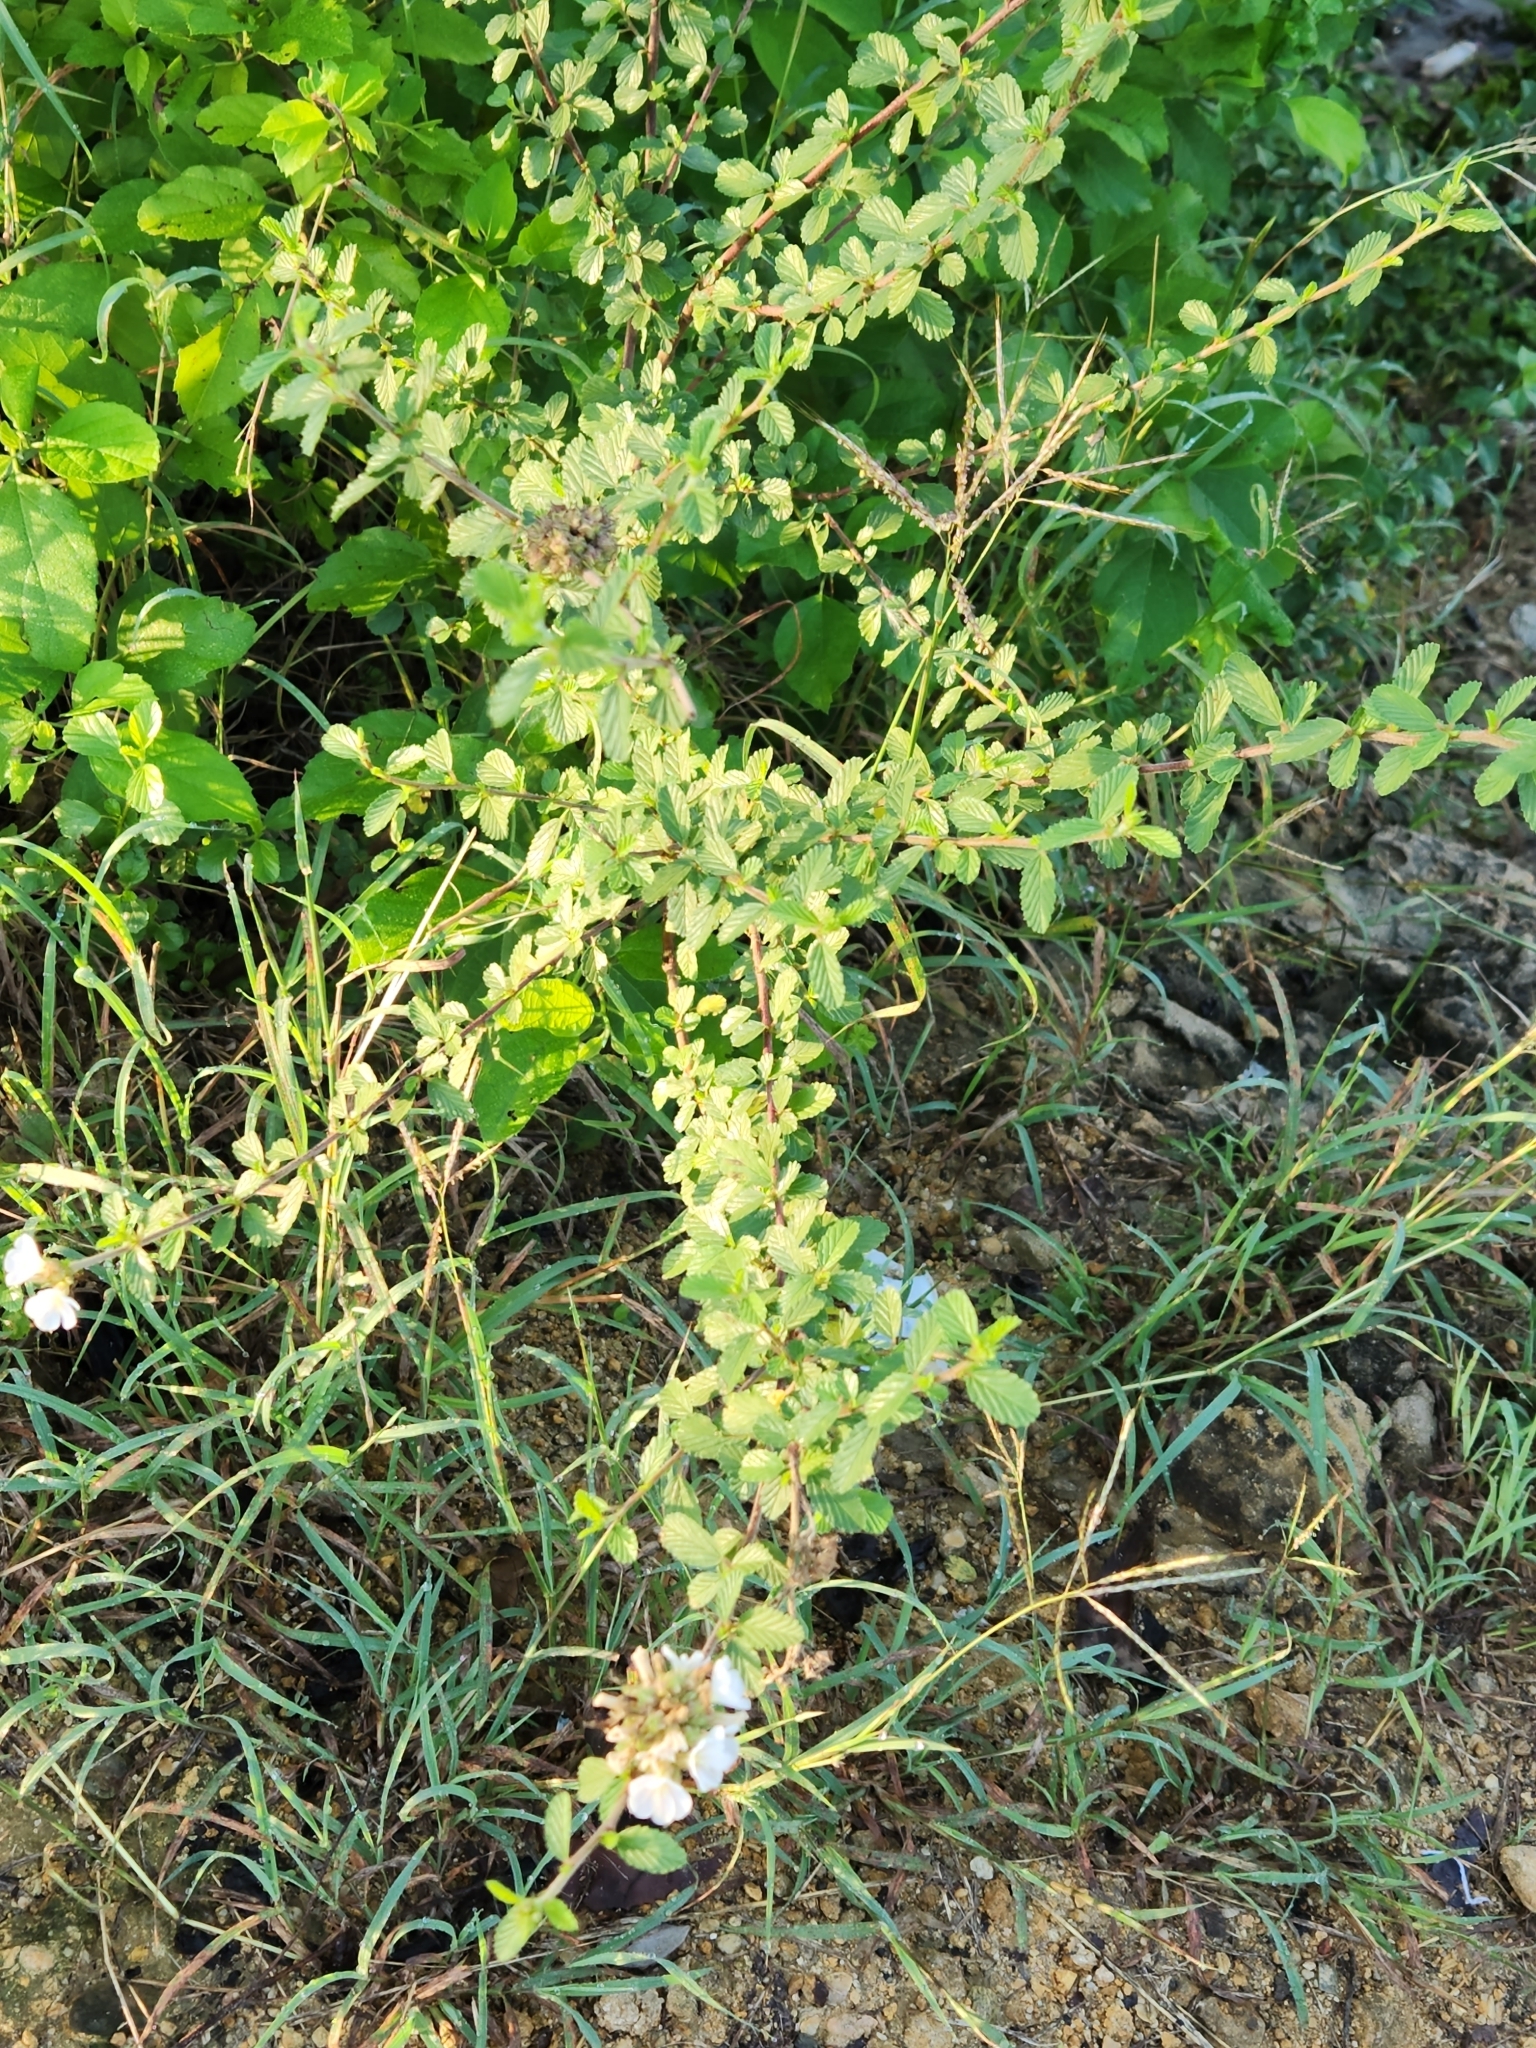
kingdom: Plantae
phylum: Tracheophyta
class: Magnoliopsida
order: Malvales
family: Malvaceae
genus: Melochia
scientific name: Melochia parvifolia
